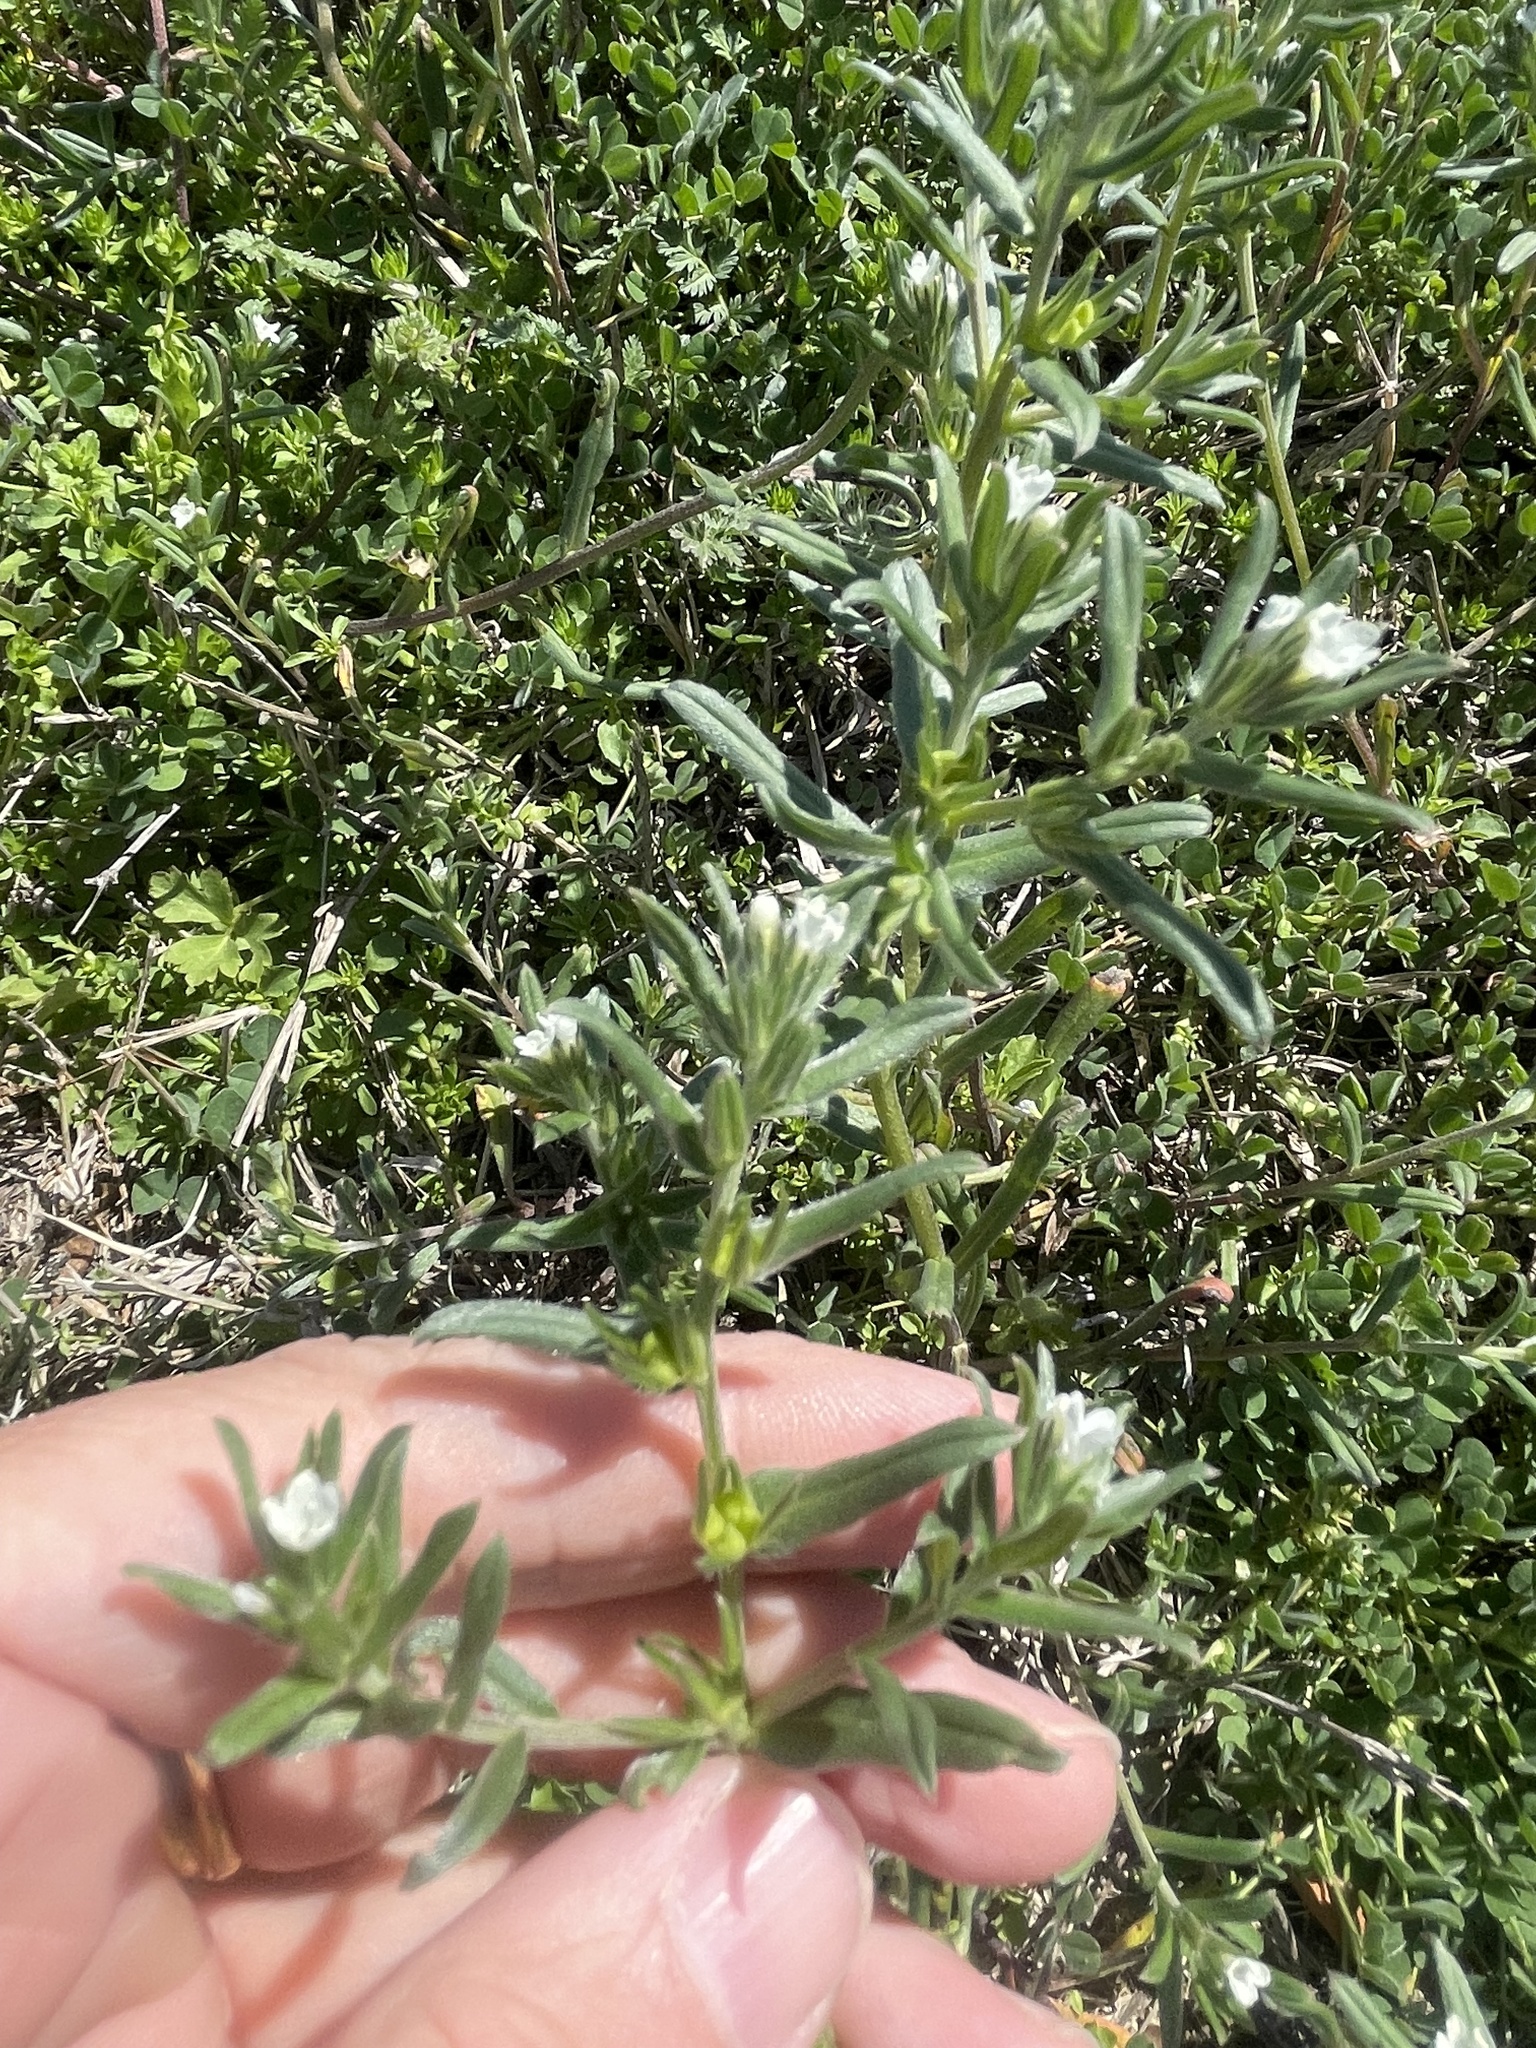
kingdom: Plantae
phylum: Tracheophyta
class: Magnoliopsida
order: Boraginales
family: Boraginaceae
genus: Buglossoides
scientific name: Buglossoides arvensis
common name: Corn gromwell
